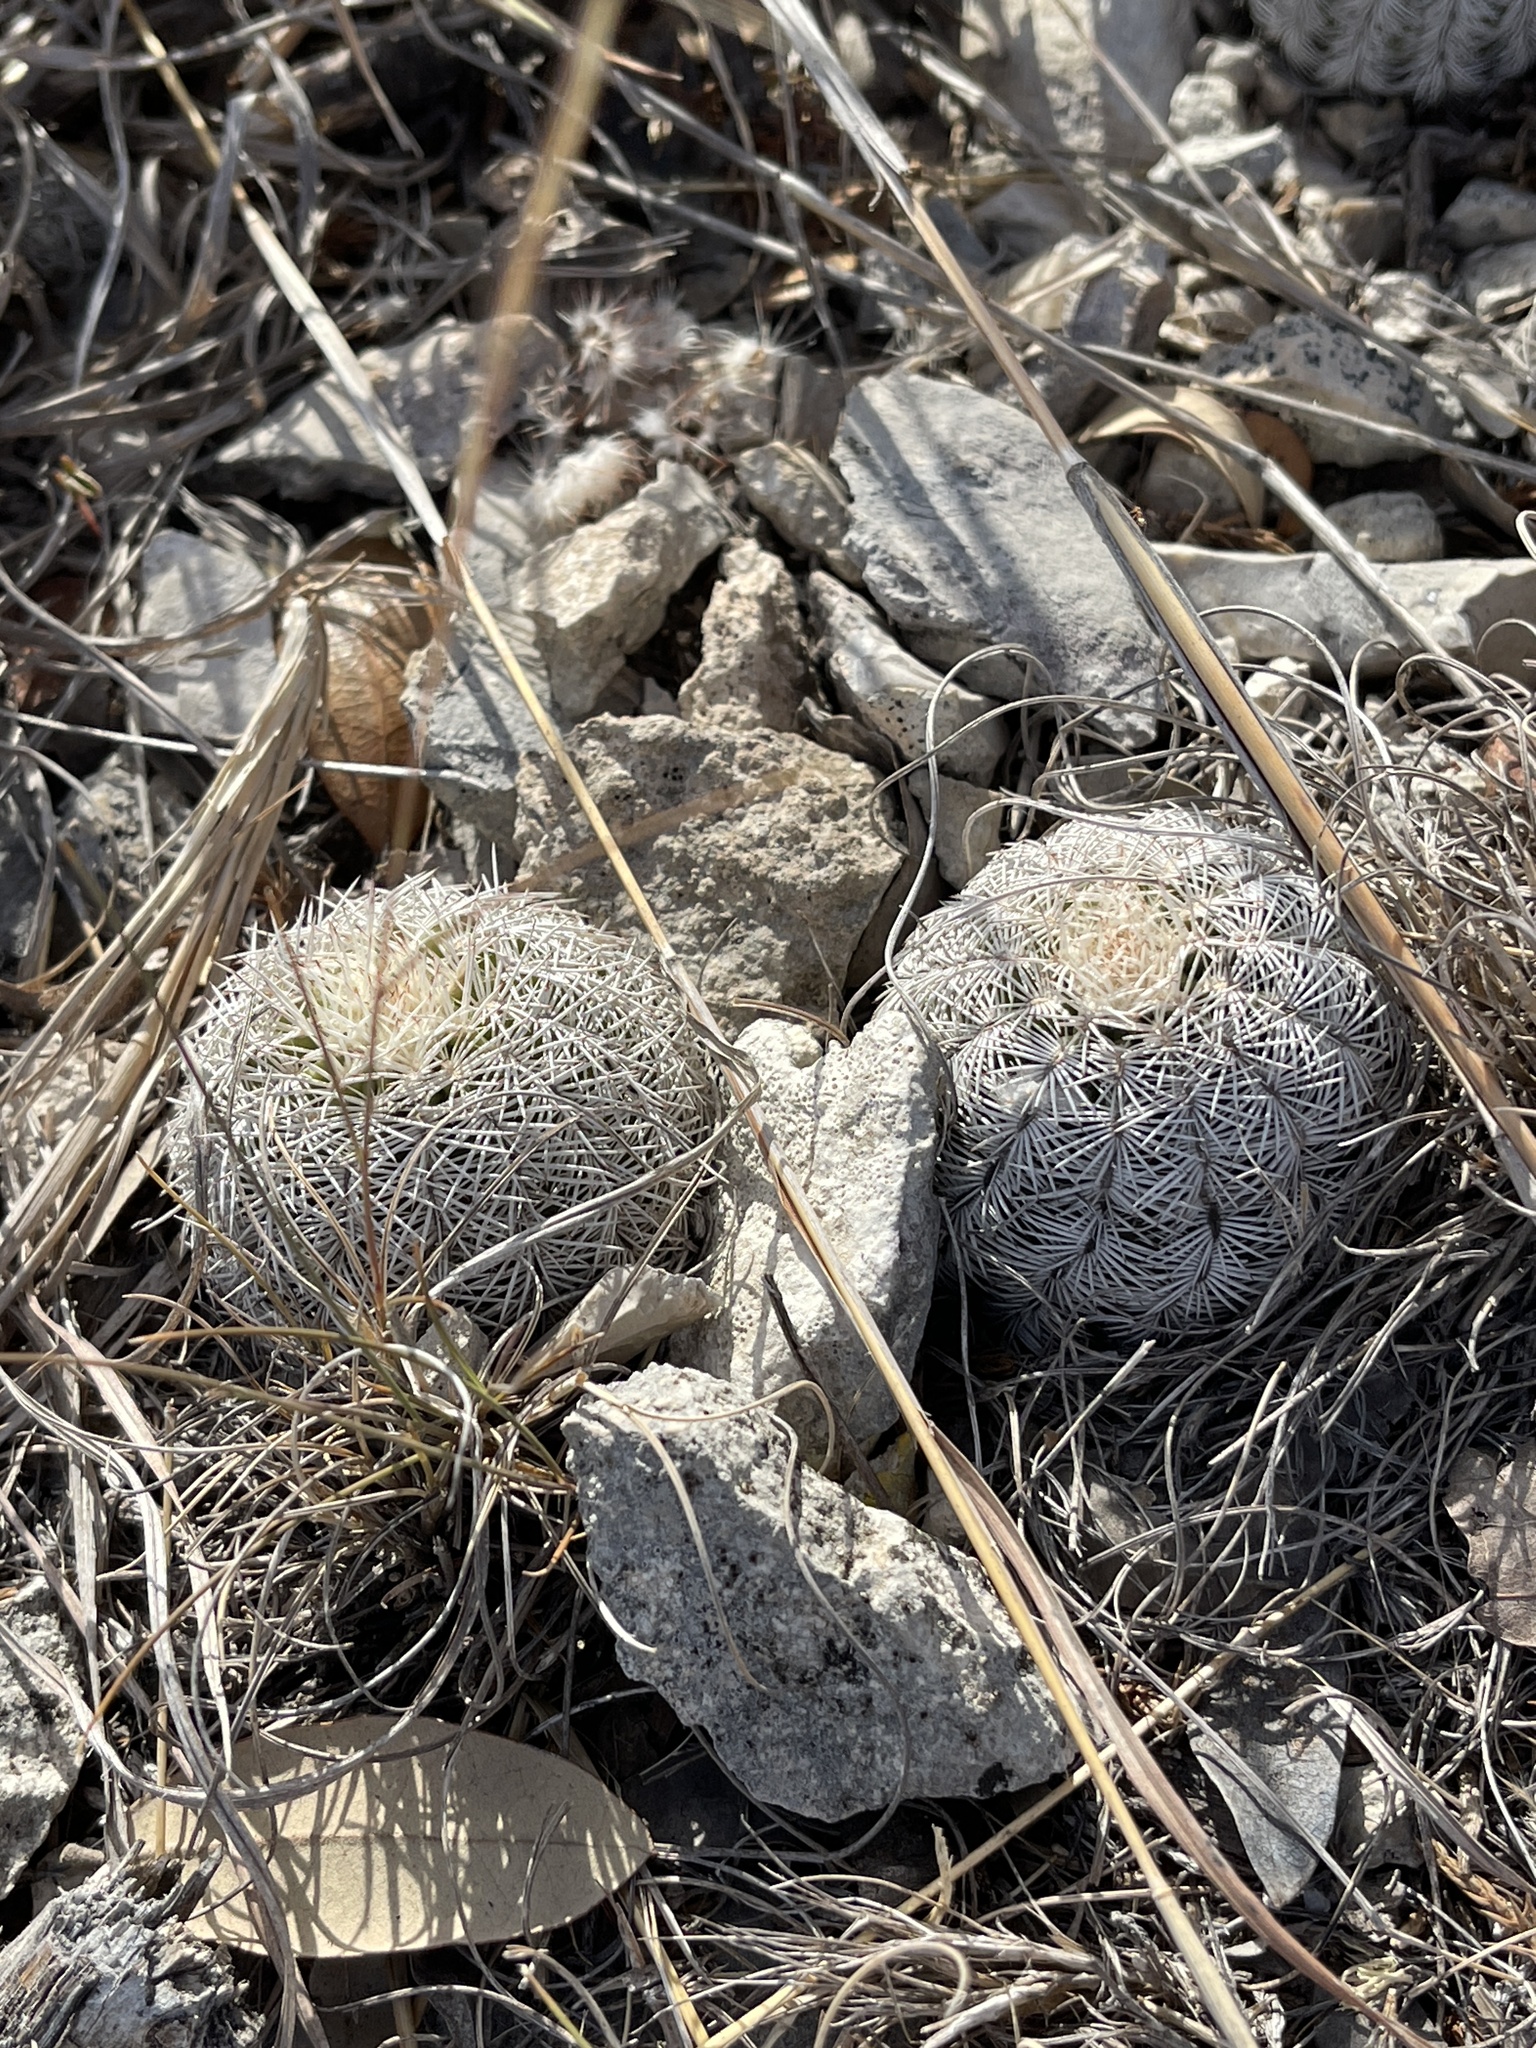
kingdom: Plantae
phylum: Tracheophyta
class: Magnoliopsida
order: Caryophyllales
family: Cactaceae
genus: Echinocereus
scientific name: Echinocereus reichenbachii
